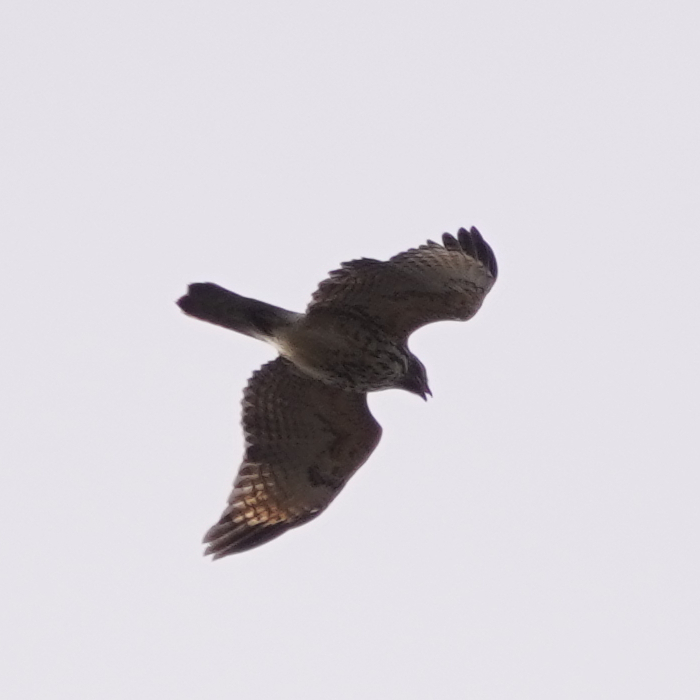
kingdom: Animalia
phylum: Chordata
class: Aves
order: Accipitriformes
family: Accipitridae
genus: Buteo
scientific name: Buteo lineatus
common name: Red-shouldered hawk
